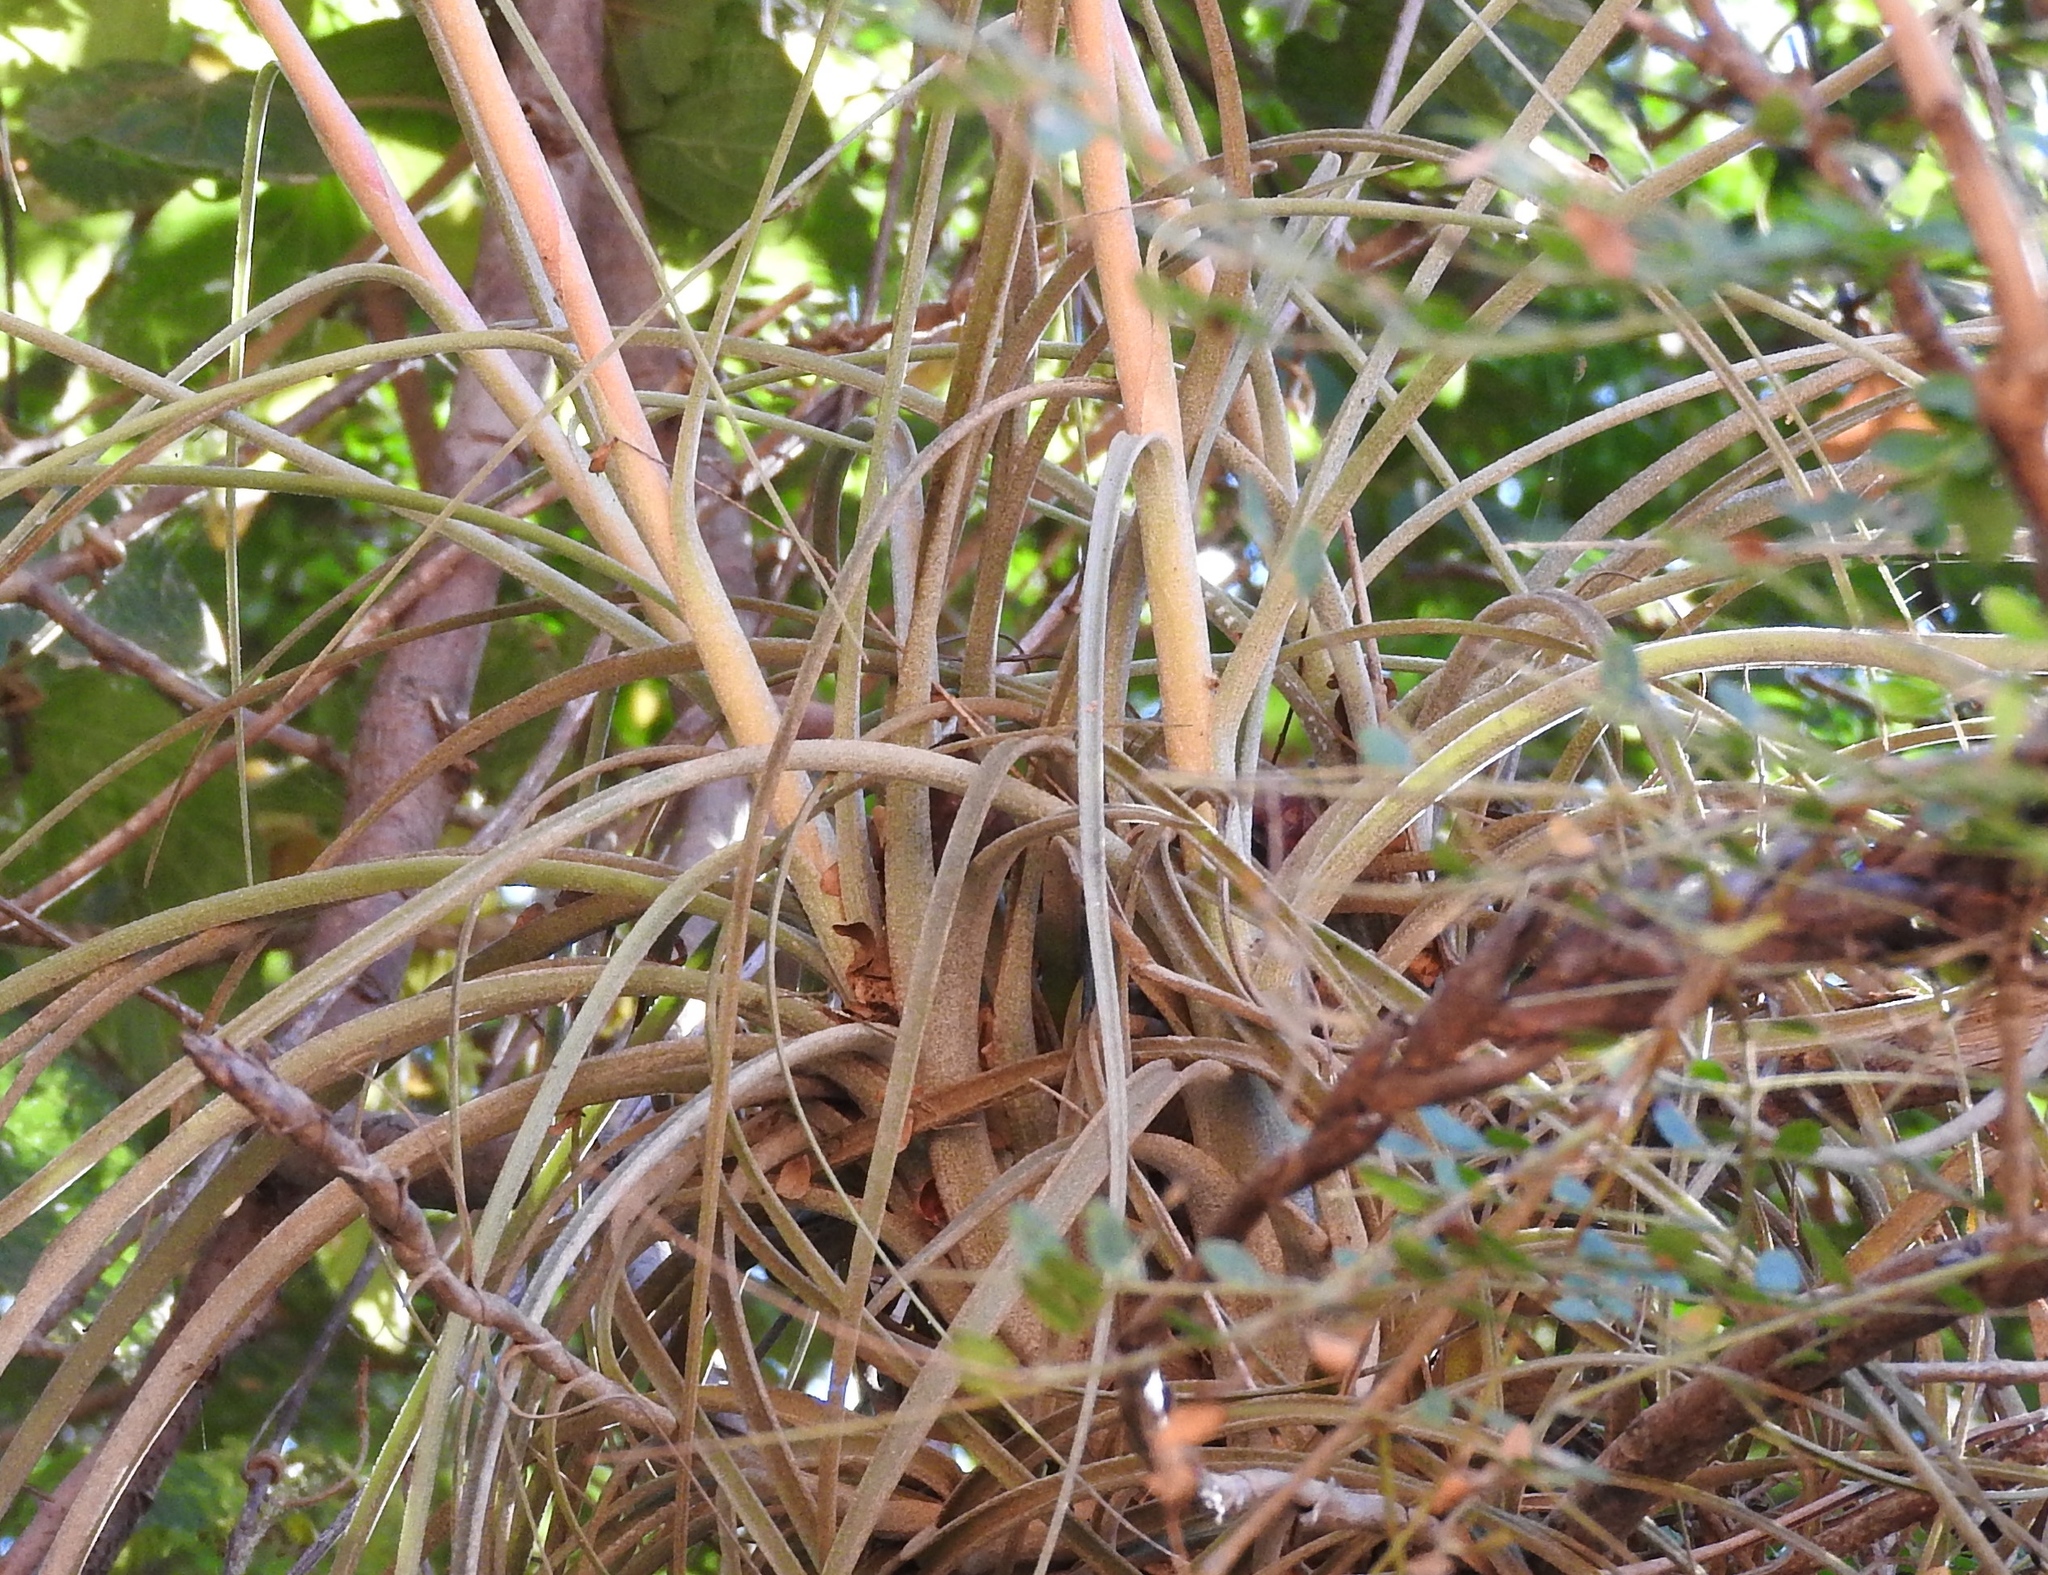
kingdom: Plantae
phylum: Tracheophyta
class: Liliopsida
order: Poales
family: Bromeliaceae
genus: Tillandsia
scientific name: Tillandsia exserta
